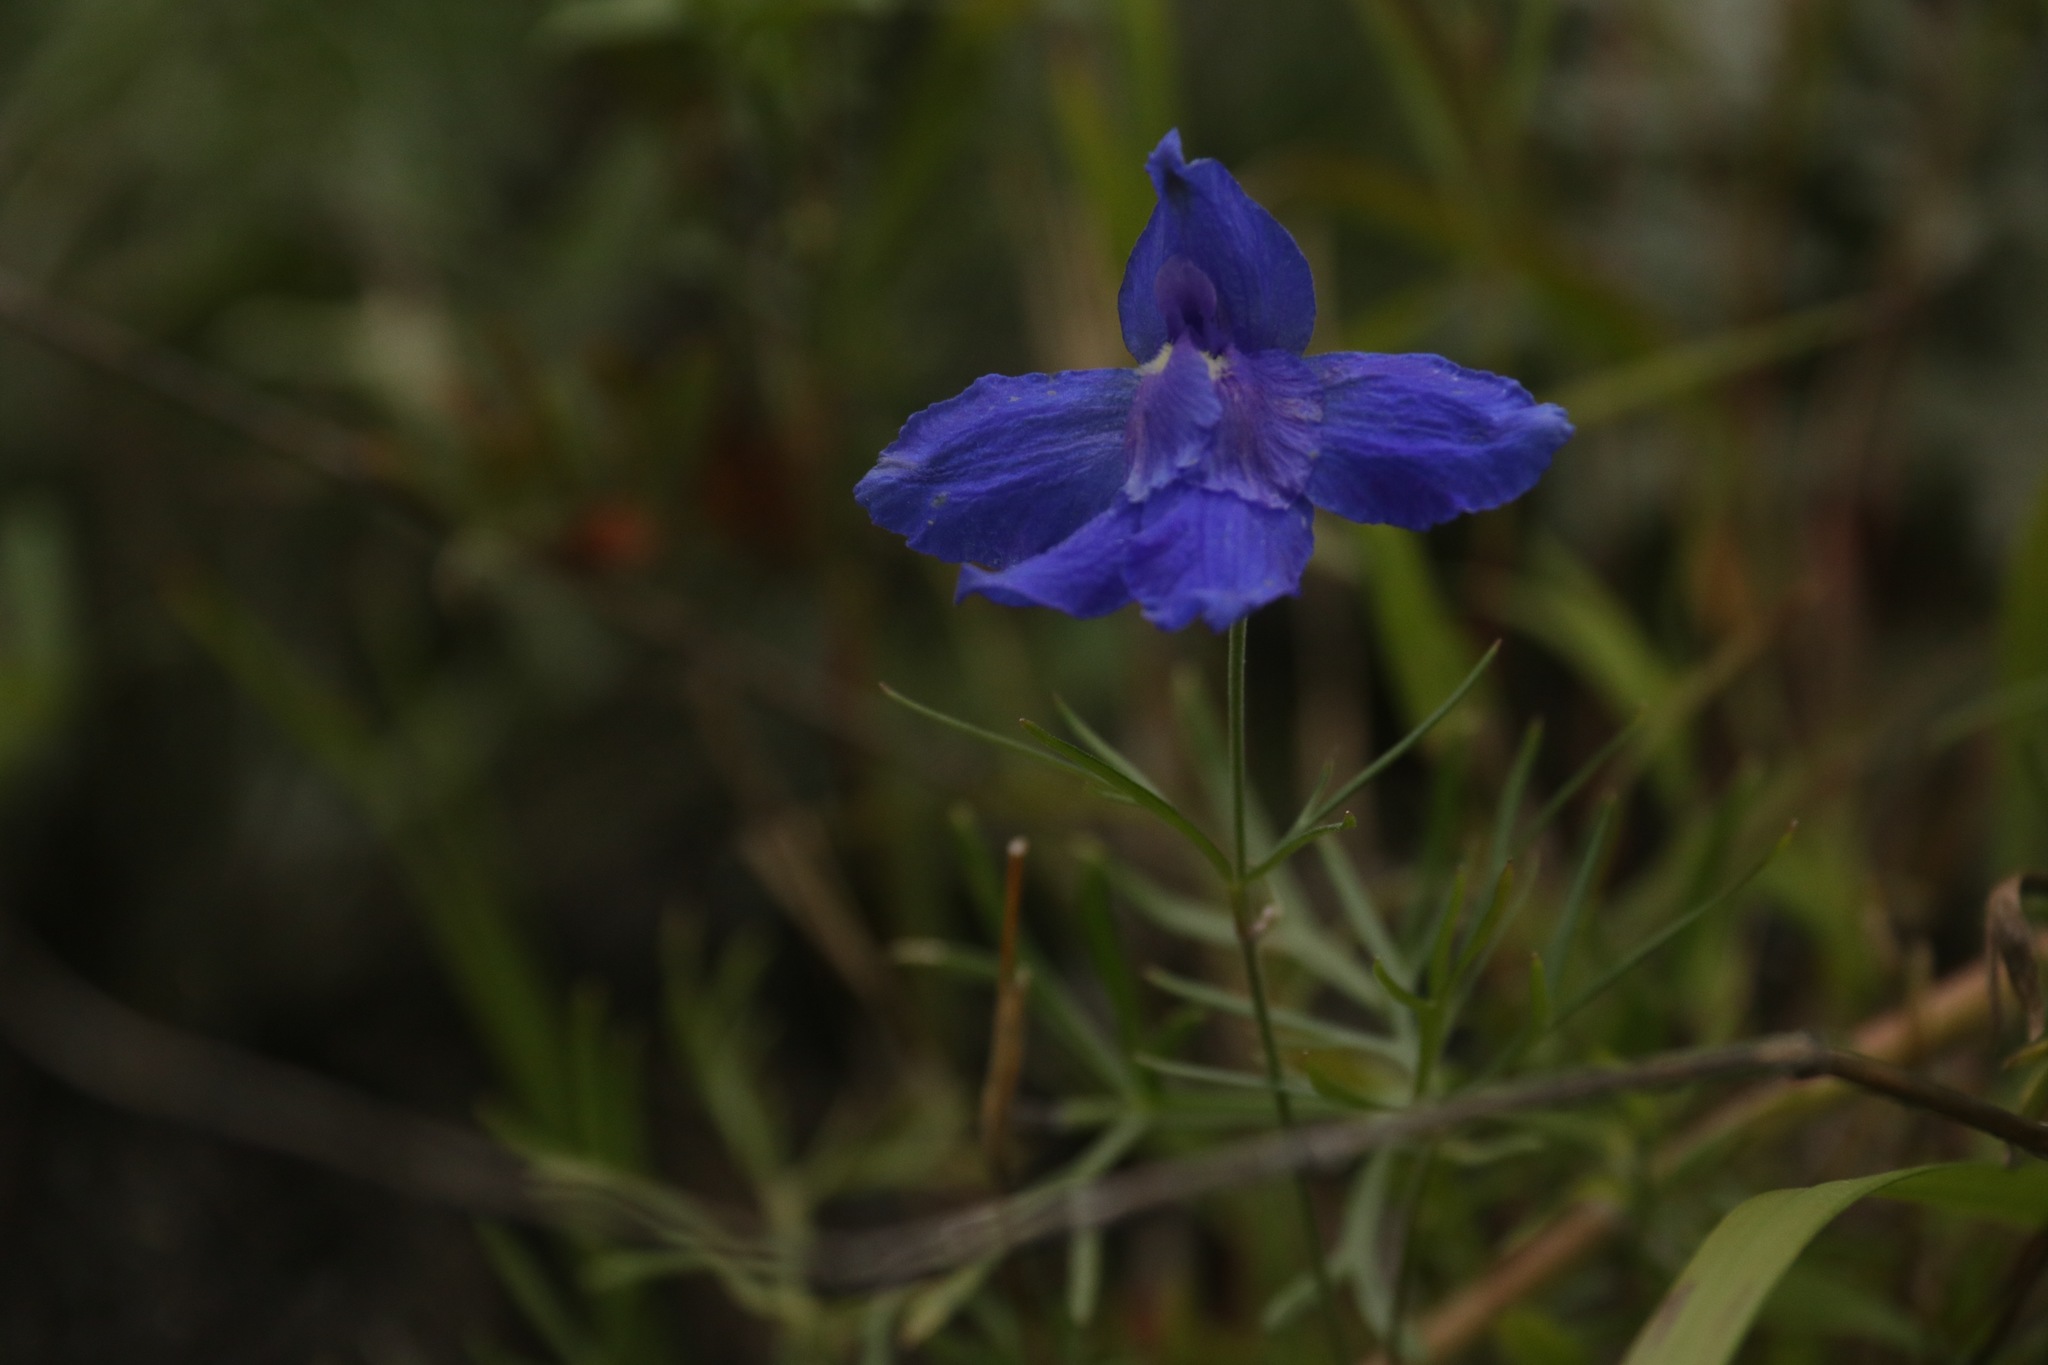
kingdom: Plantae
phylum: Tracheophyta
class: Magnoliopsida
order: Ranunculales
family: Ranunculaceae
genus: Delphinium
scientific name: Delphinium grandiflorum
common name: Siberian larkspur
